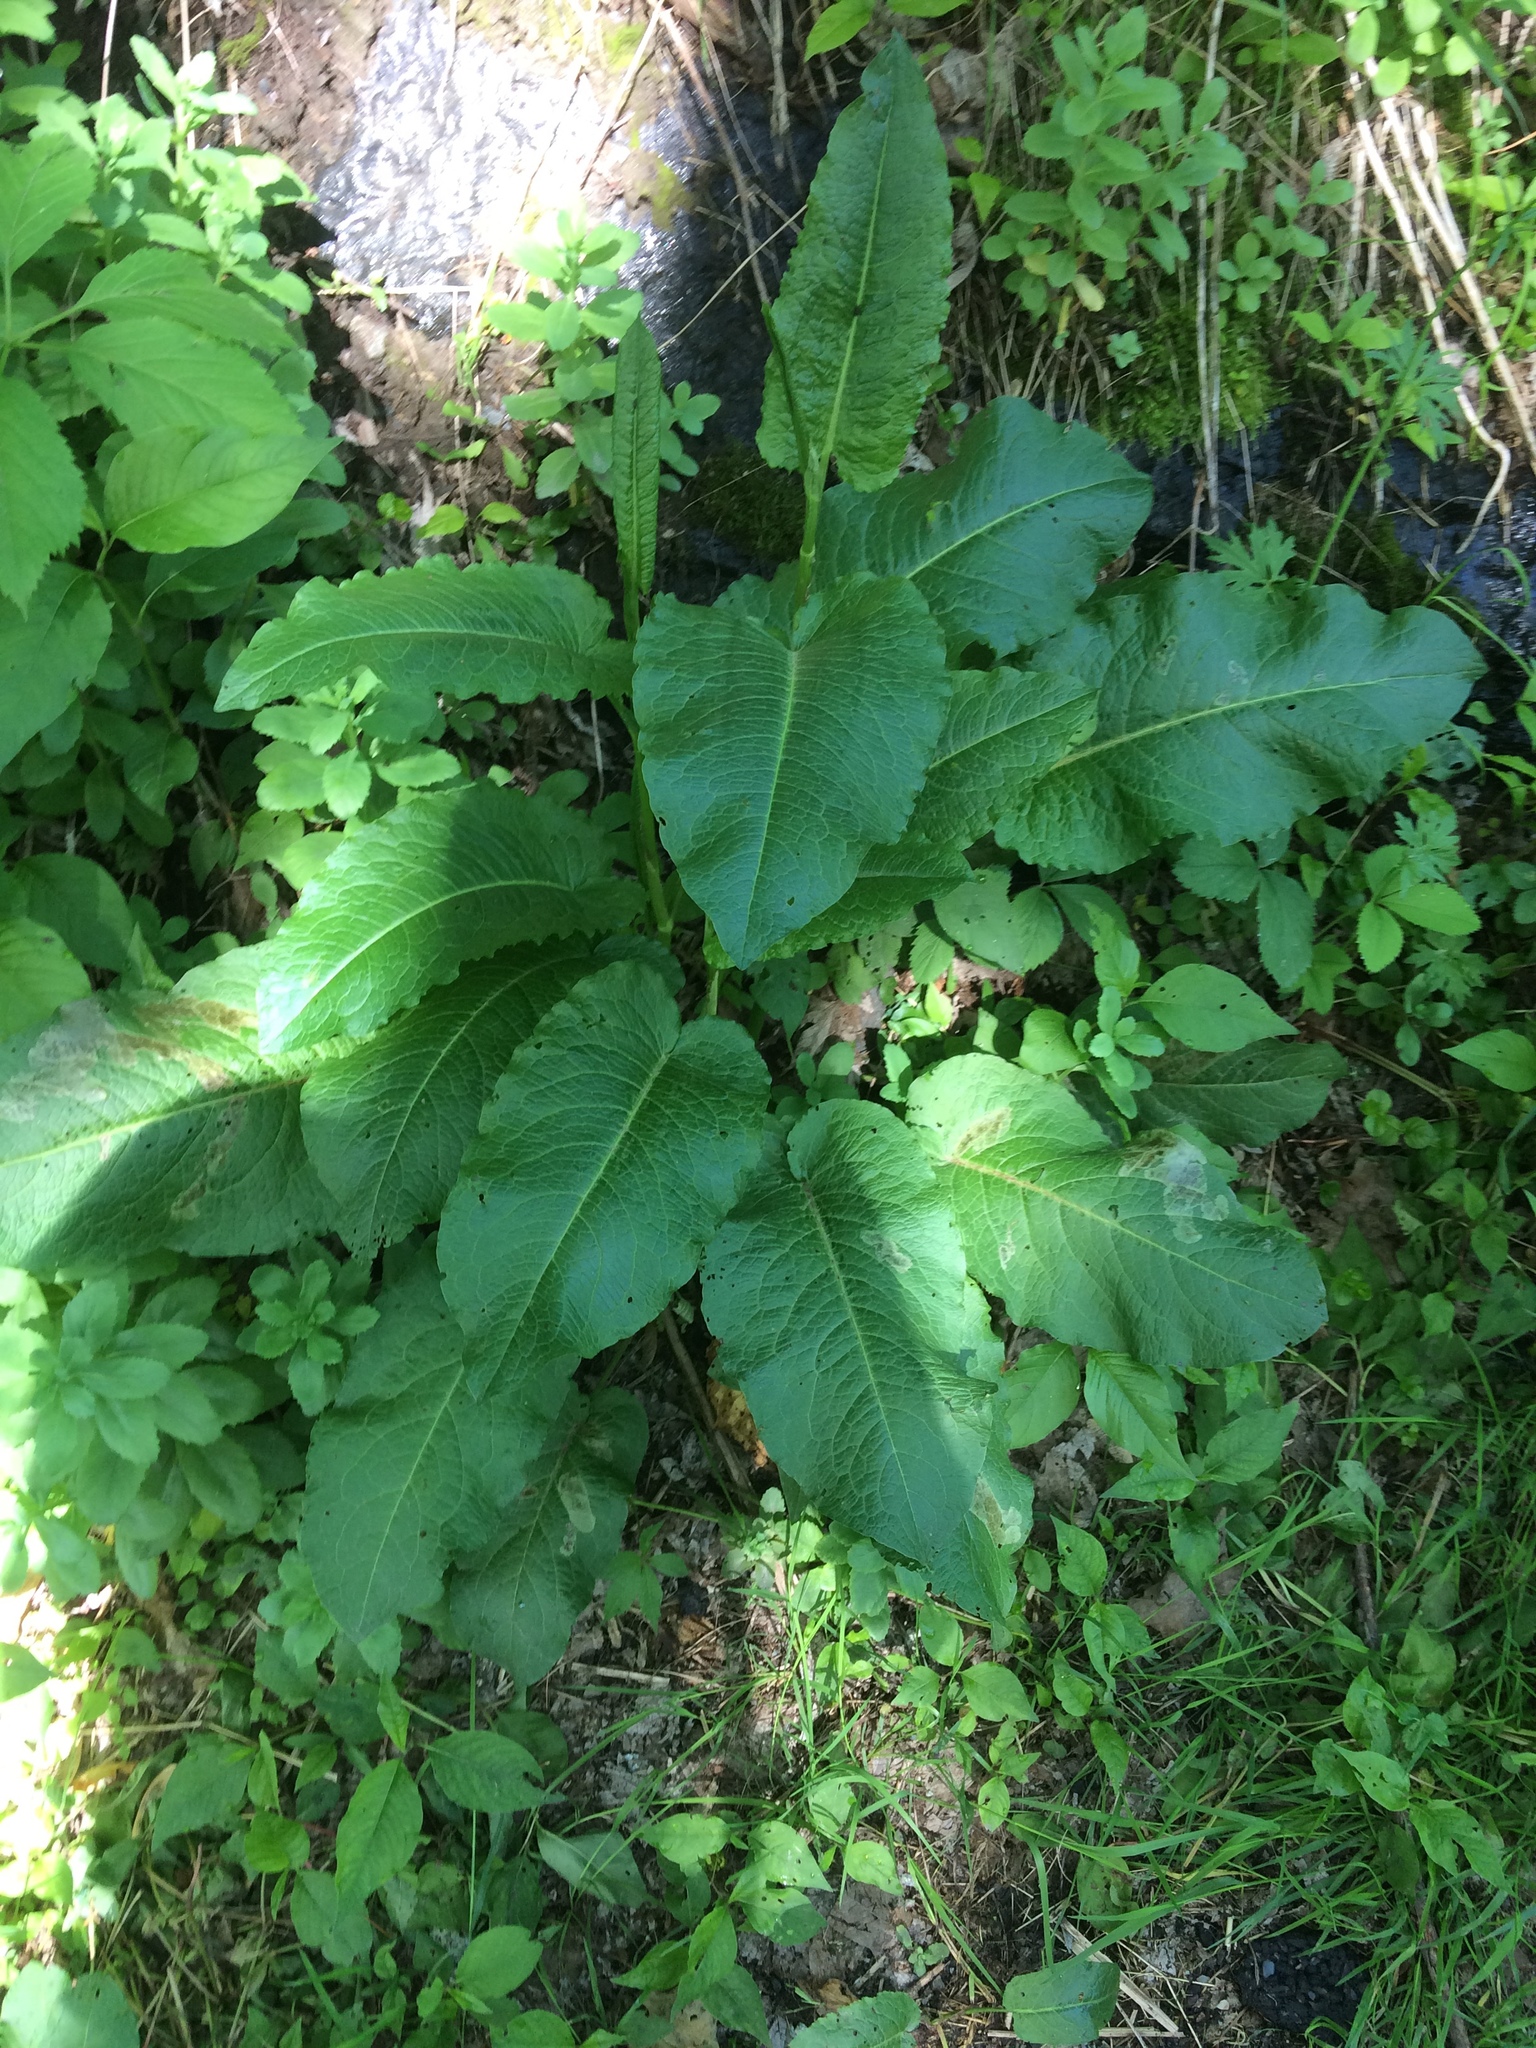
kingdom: Plantae
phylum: Tracheophyta
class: Magnoliopsida
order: Caryophyllales
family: Polygonaceae
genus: Rumex
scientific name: Rumex obtusifolius
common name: Bitter dock
